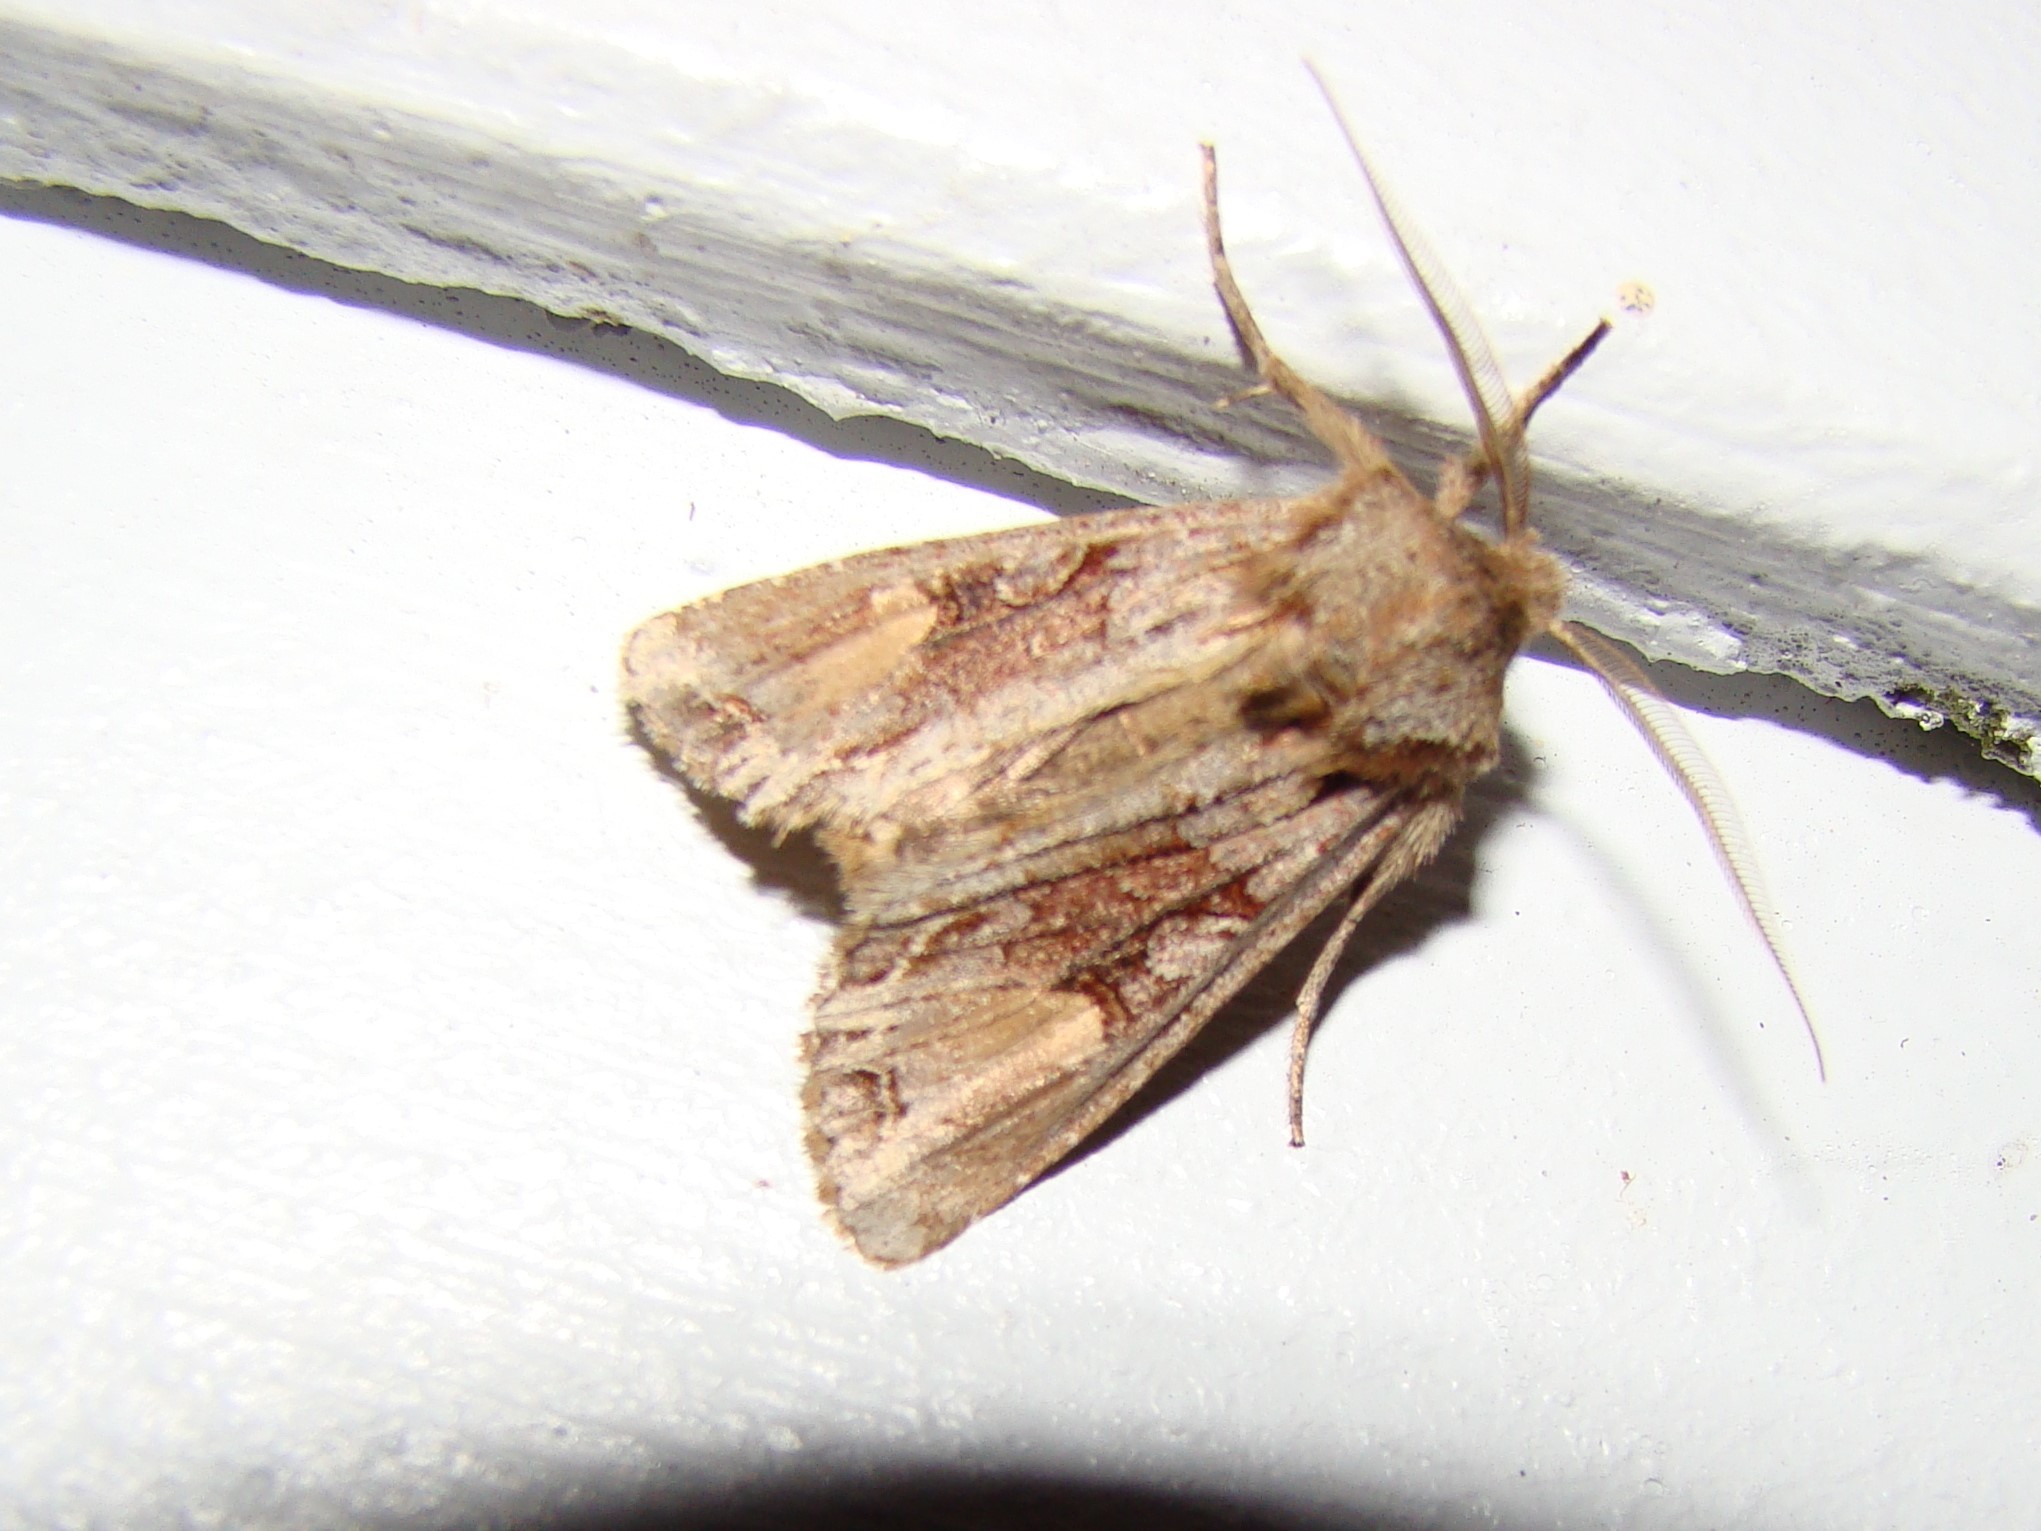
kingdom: Animalia
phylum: Arthropoda
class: Insecta
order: Lepidoptera
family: Noctuidae
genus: Ichneutica
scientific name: Ichneutica
